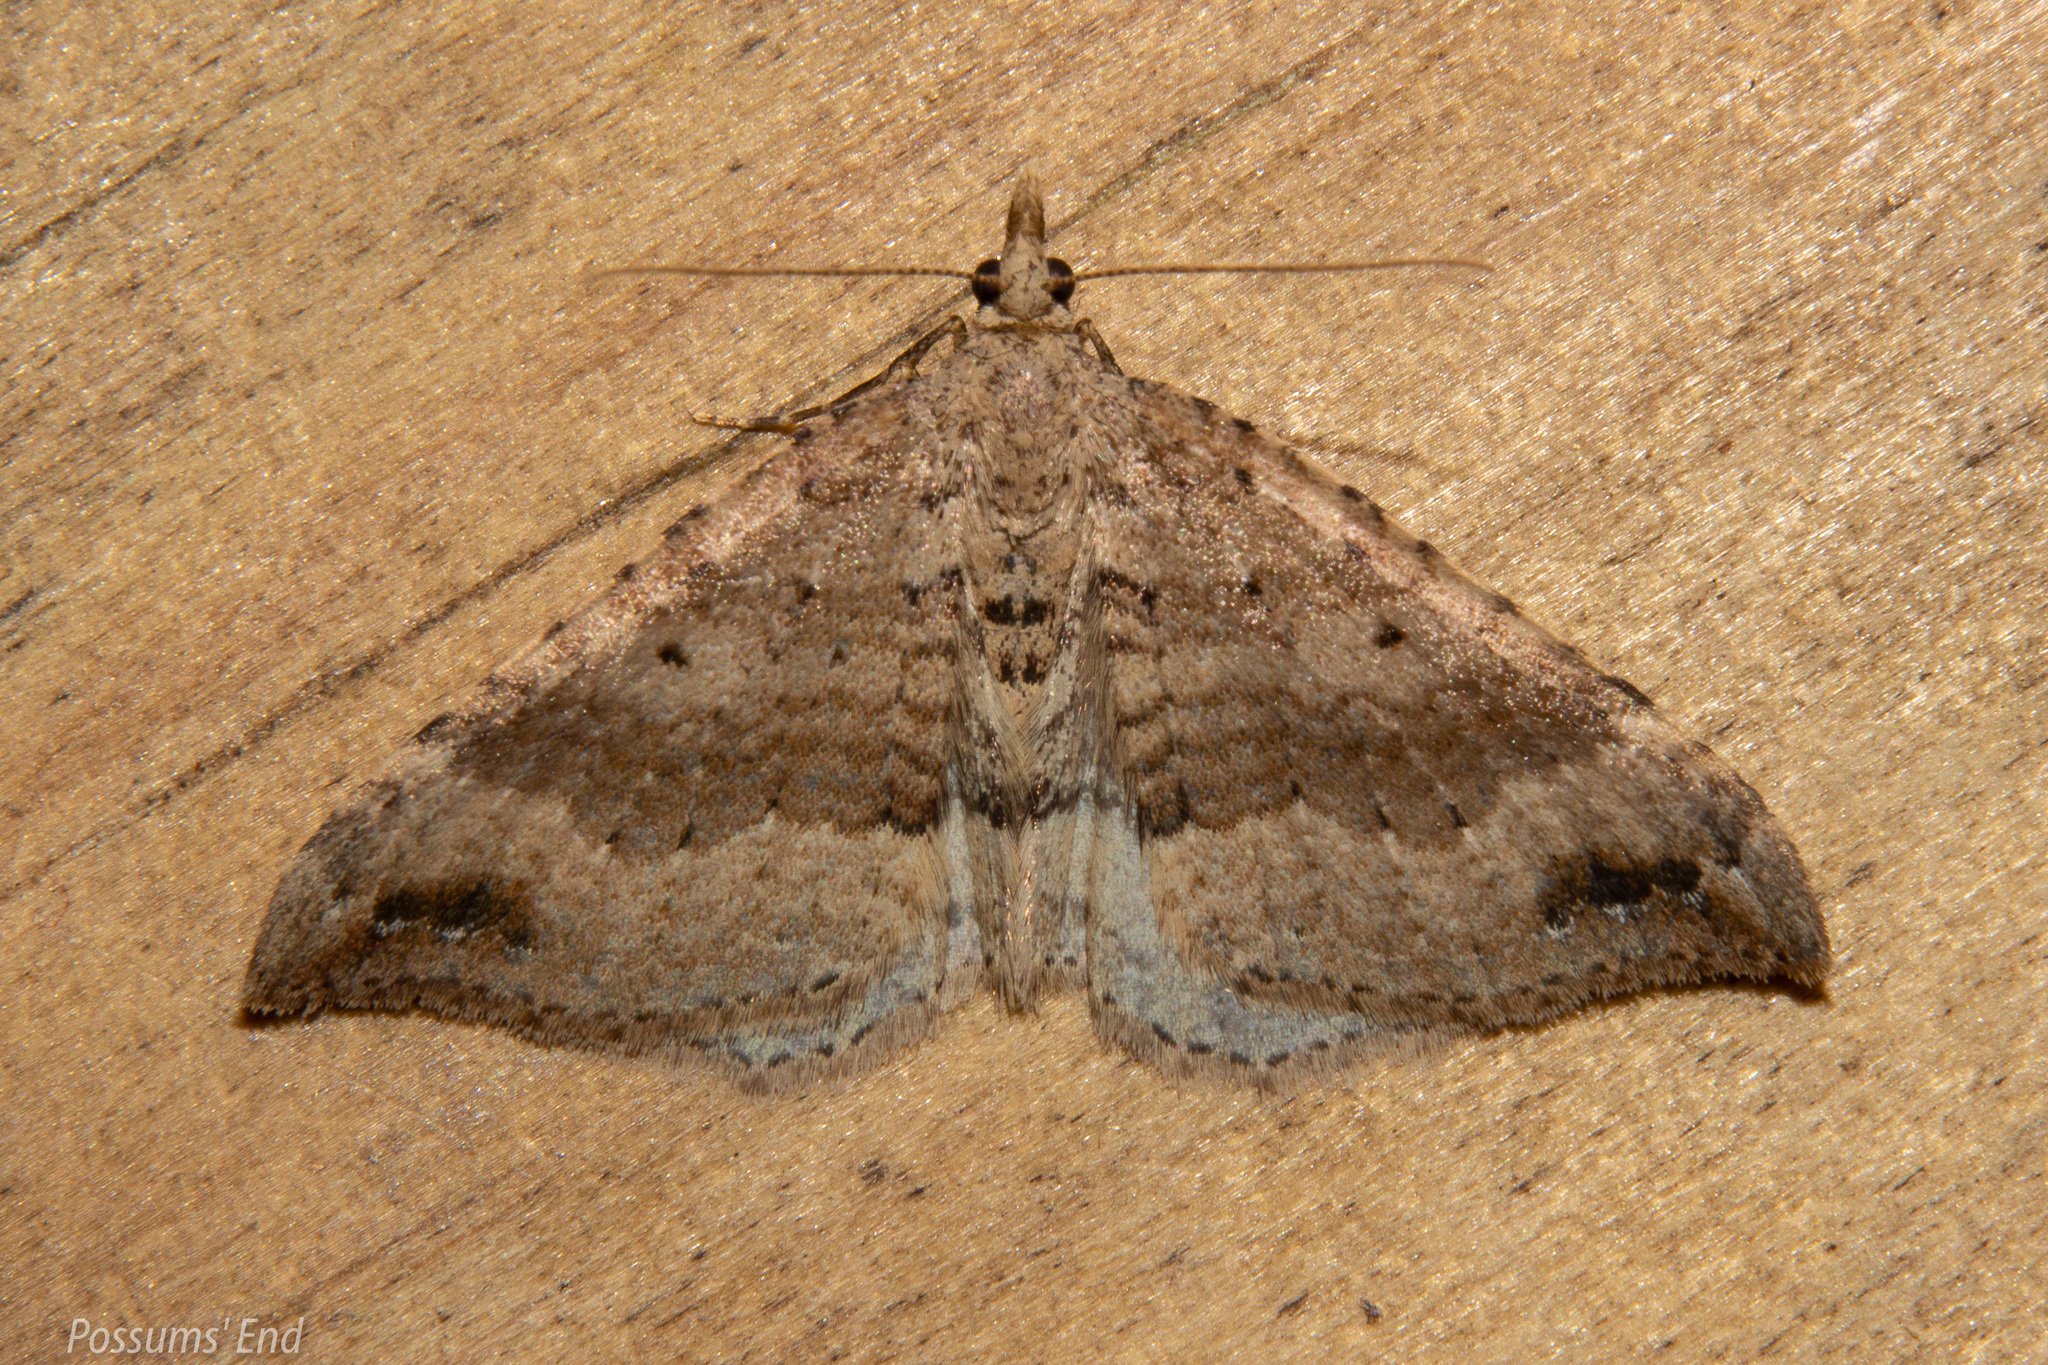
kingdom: Animalia
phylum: Arthropoda
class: Insecta
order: Lepidoptera
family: Geometridae
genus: Homodotis
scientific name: Homodotis falcata
